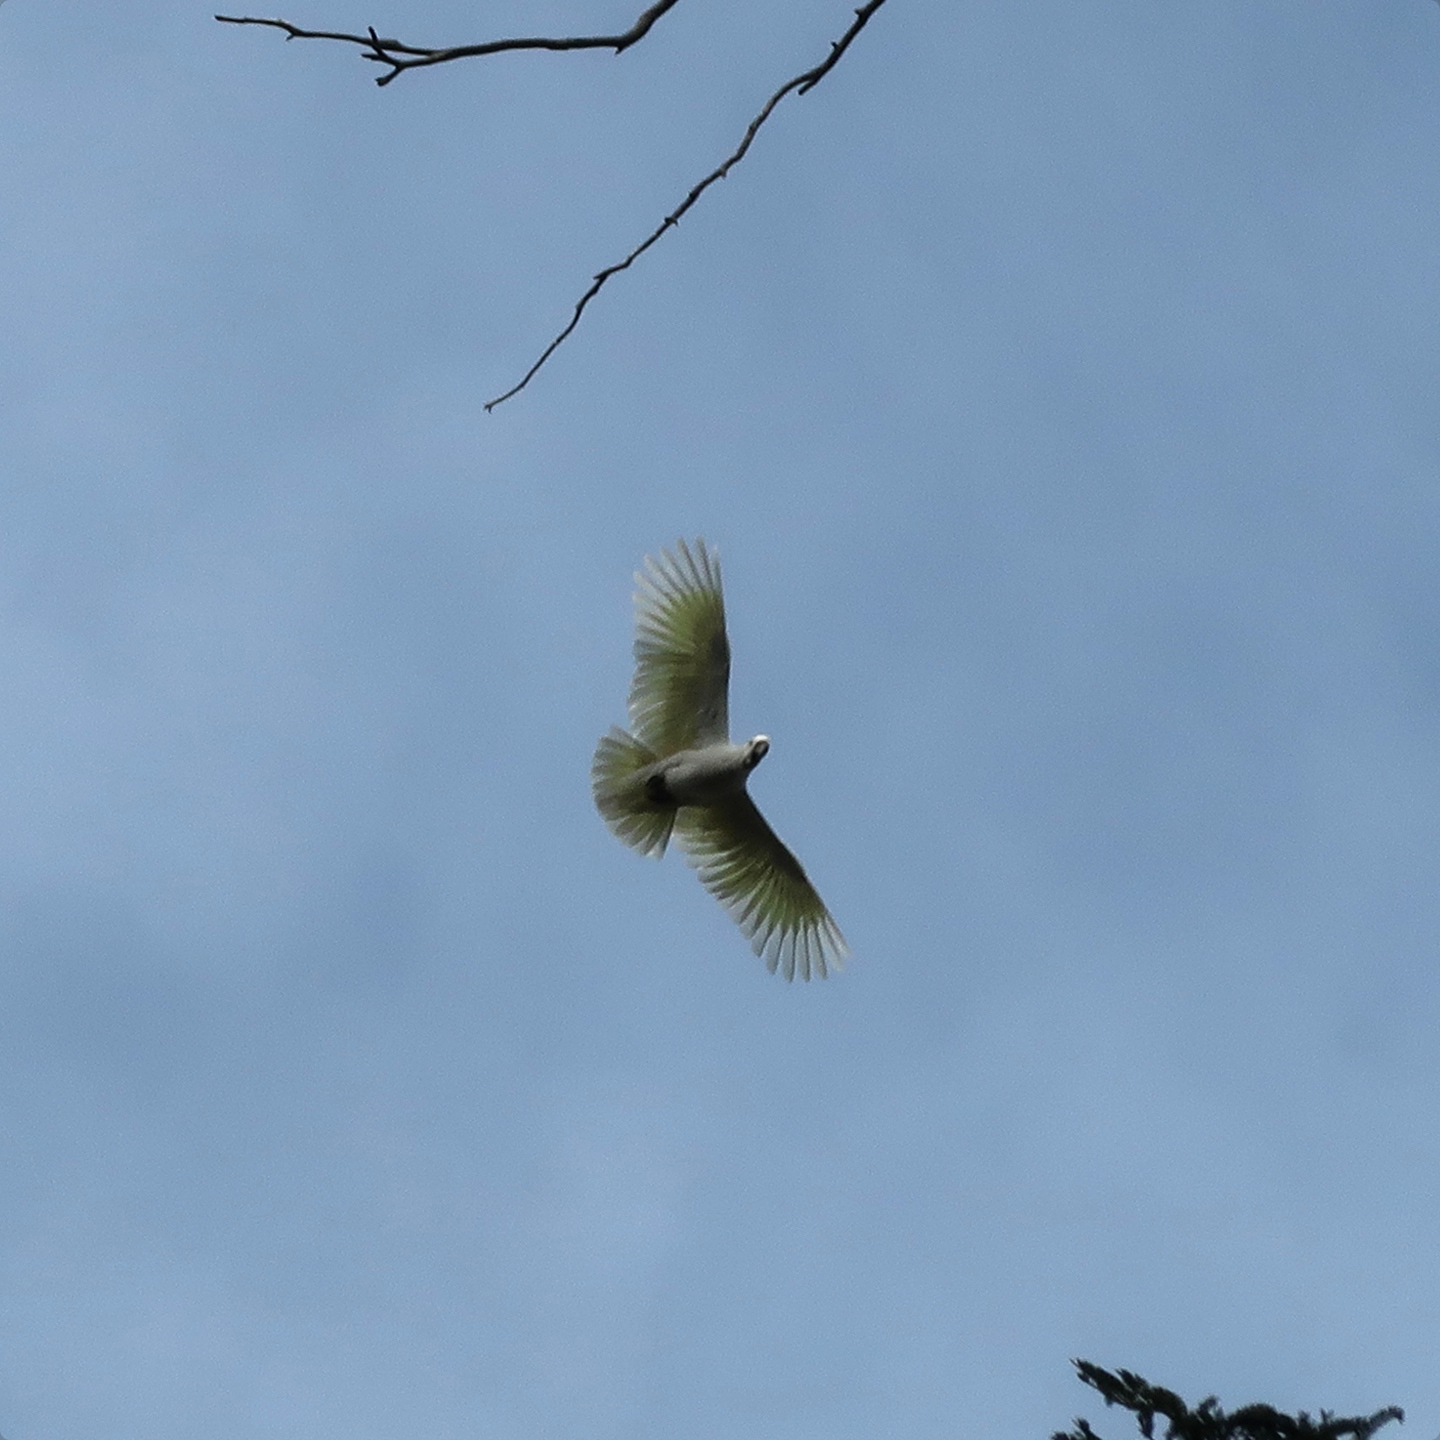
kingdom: Animalia
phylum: Chordata
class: Aves
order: Psittaciformes
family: Psittacidae
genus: Cacatua
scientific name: Cacatua galerita
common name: Sulphur-crested cockatoo
